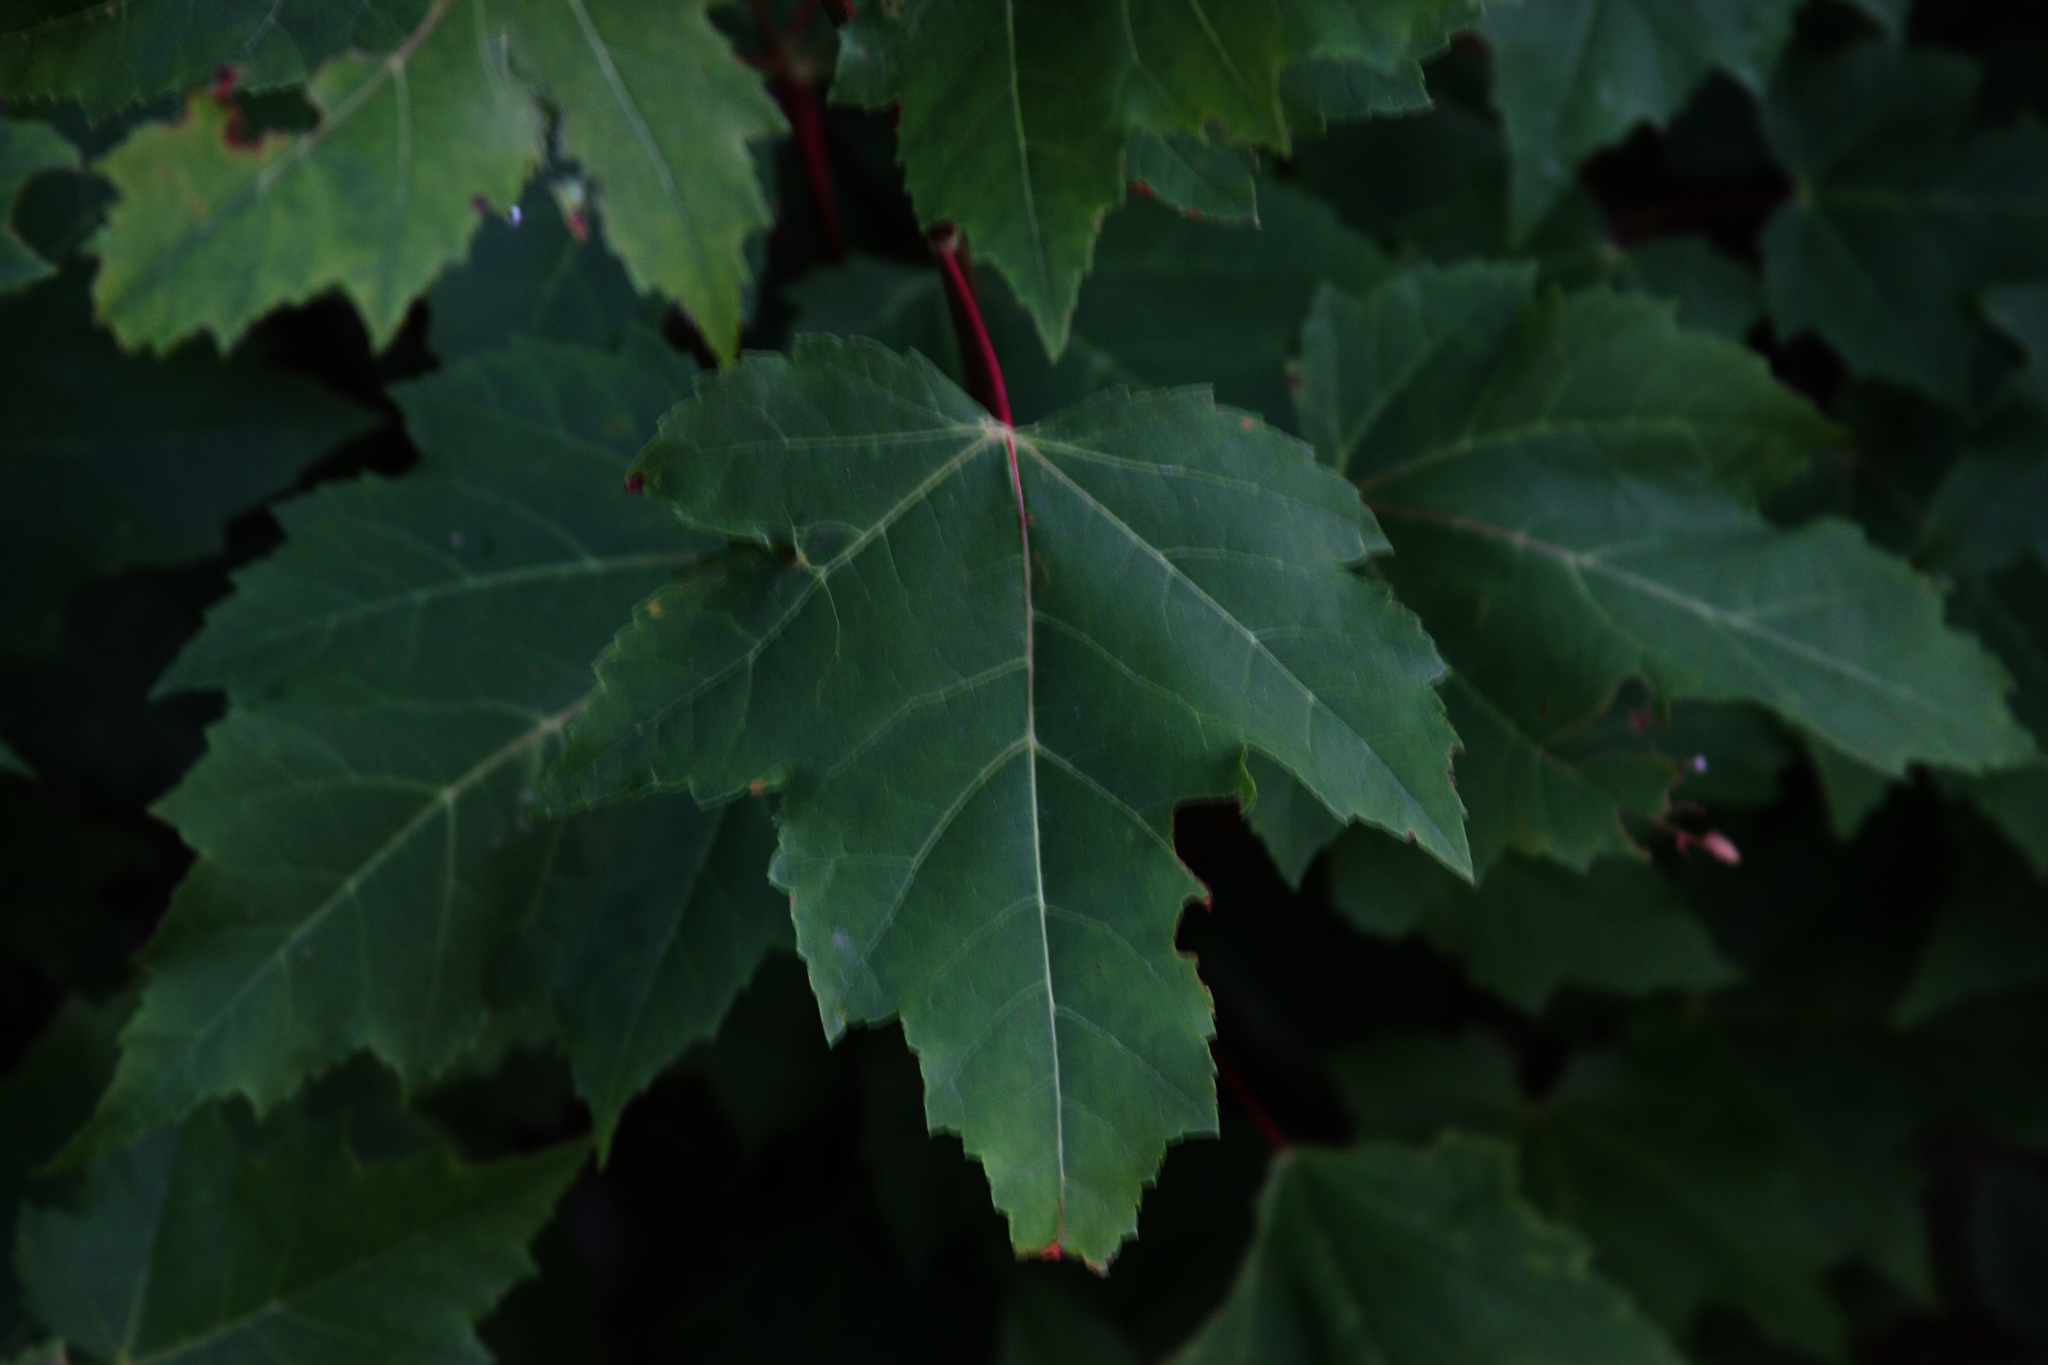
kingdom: Plantae
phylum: Tracheophyta
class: Magnoliopsida
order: Sapindales
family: Sapindaceae
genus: Acer
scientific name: Acer rubrum
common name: Red maple
